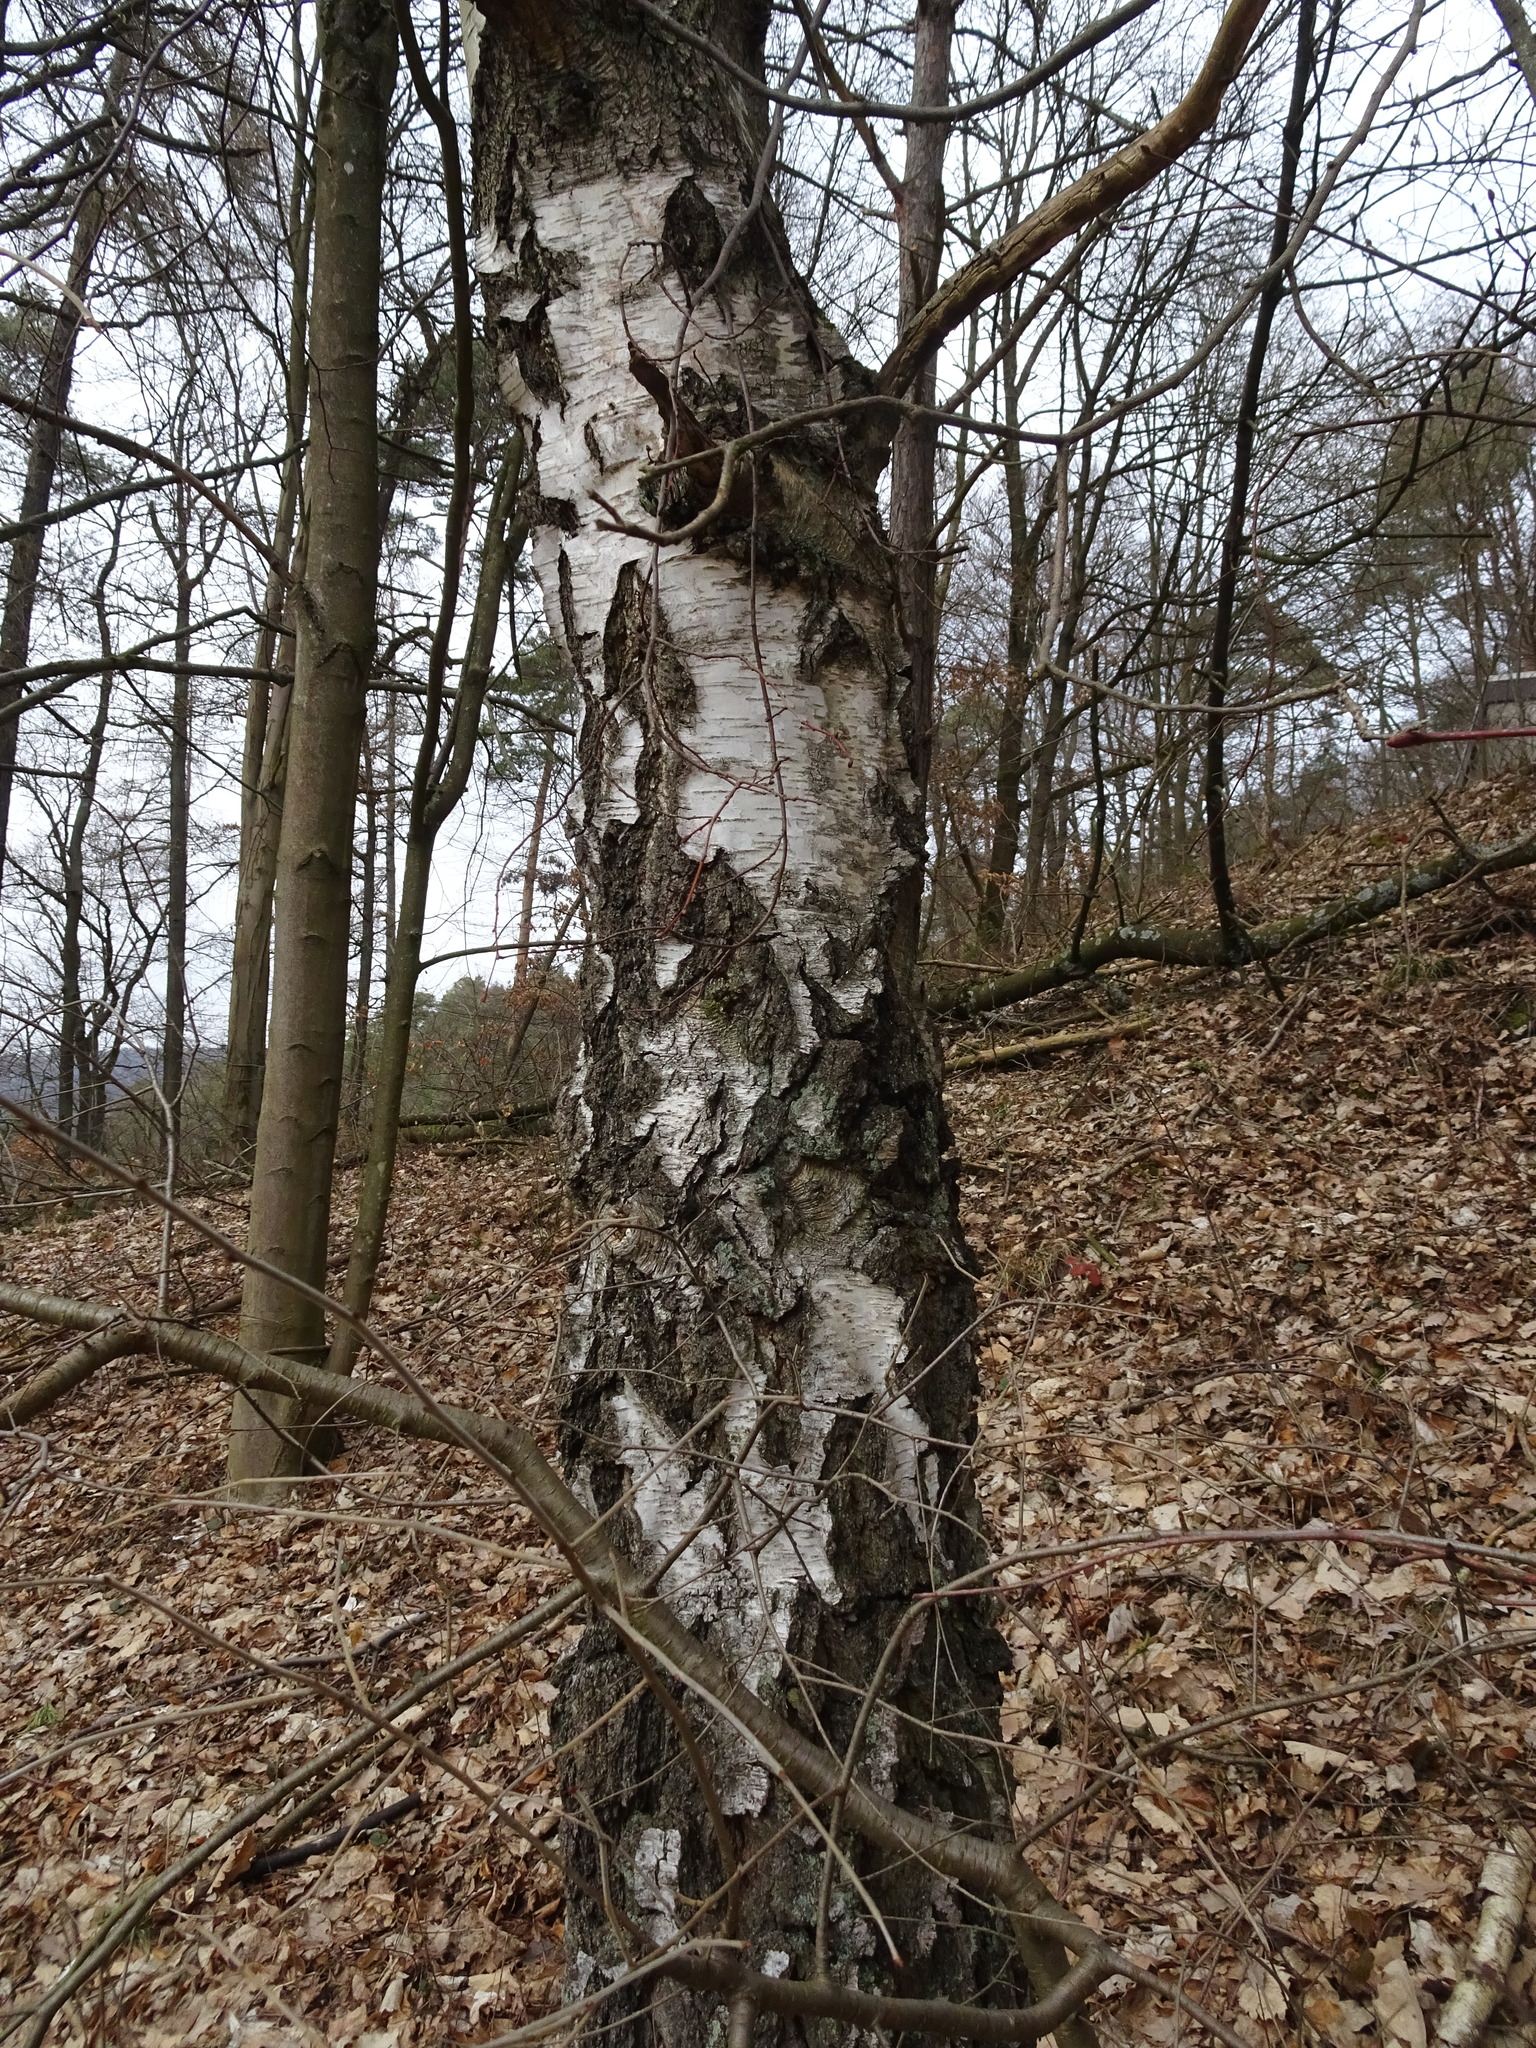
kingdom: Plantae
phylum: Tracheophyta
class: Magnoliopsida
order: Fagales
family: Betulaceae
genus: Betula
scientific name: Betula pendula
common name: Silver birch
